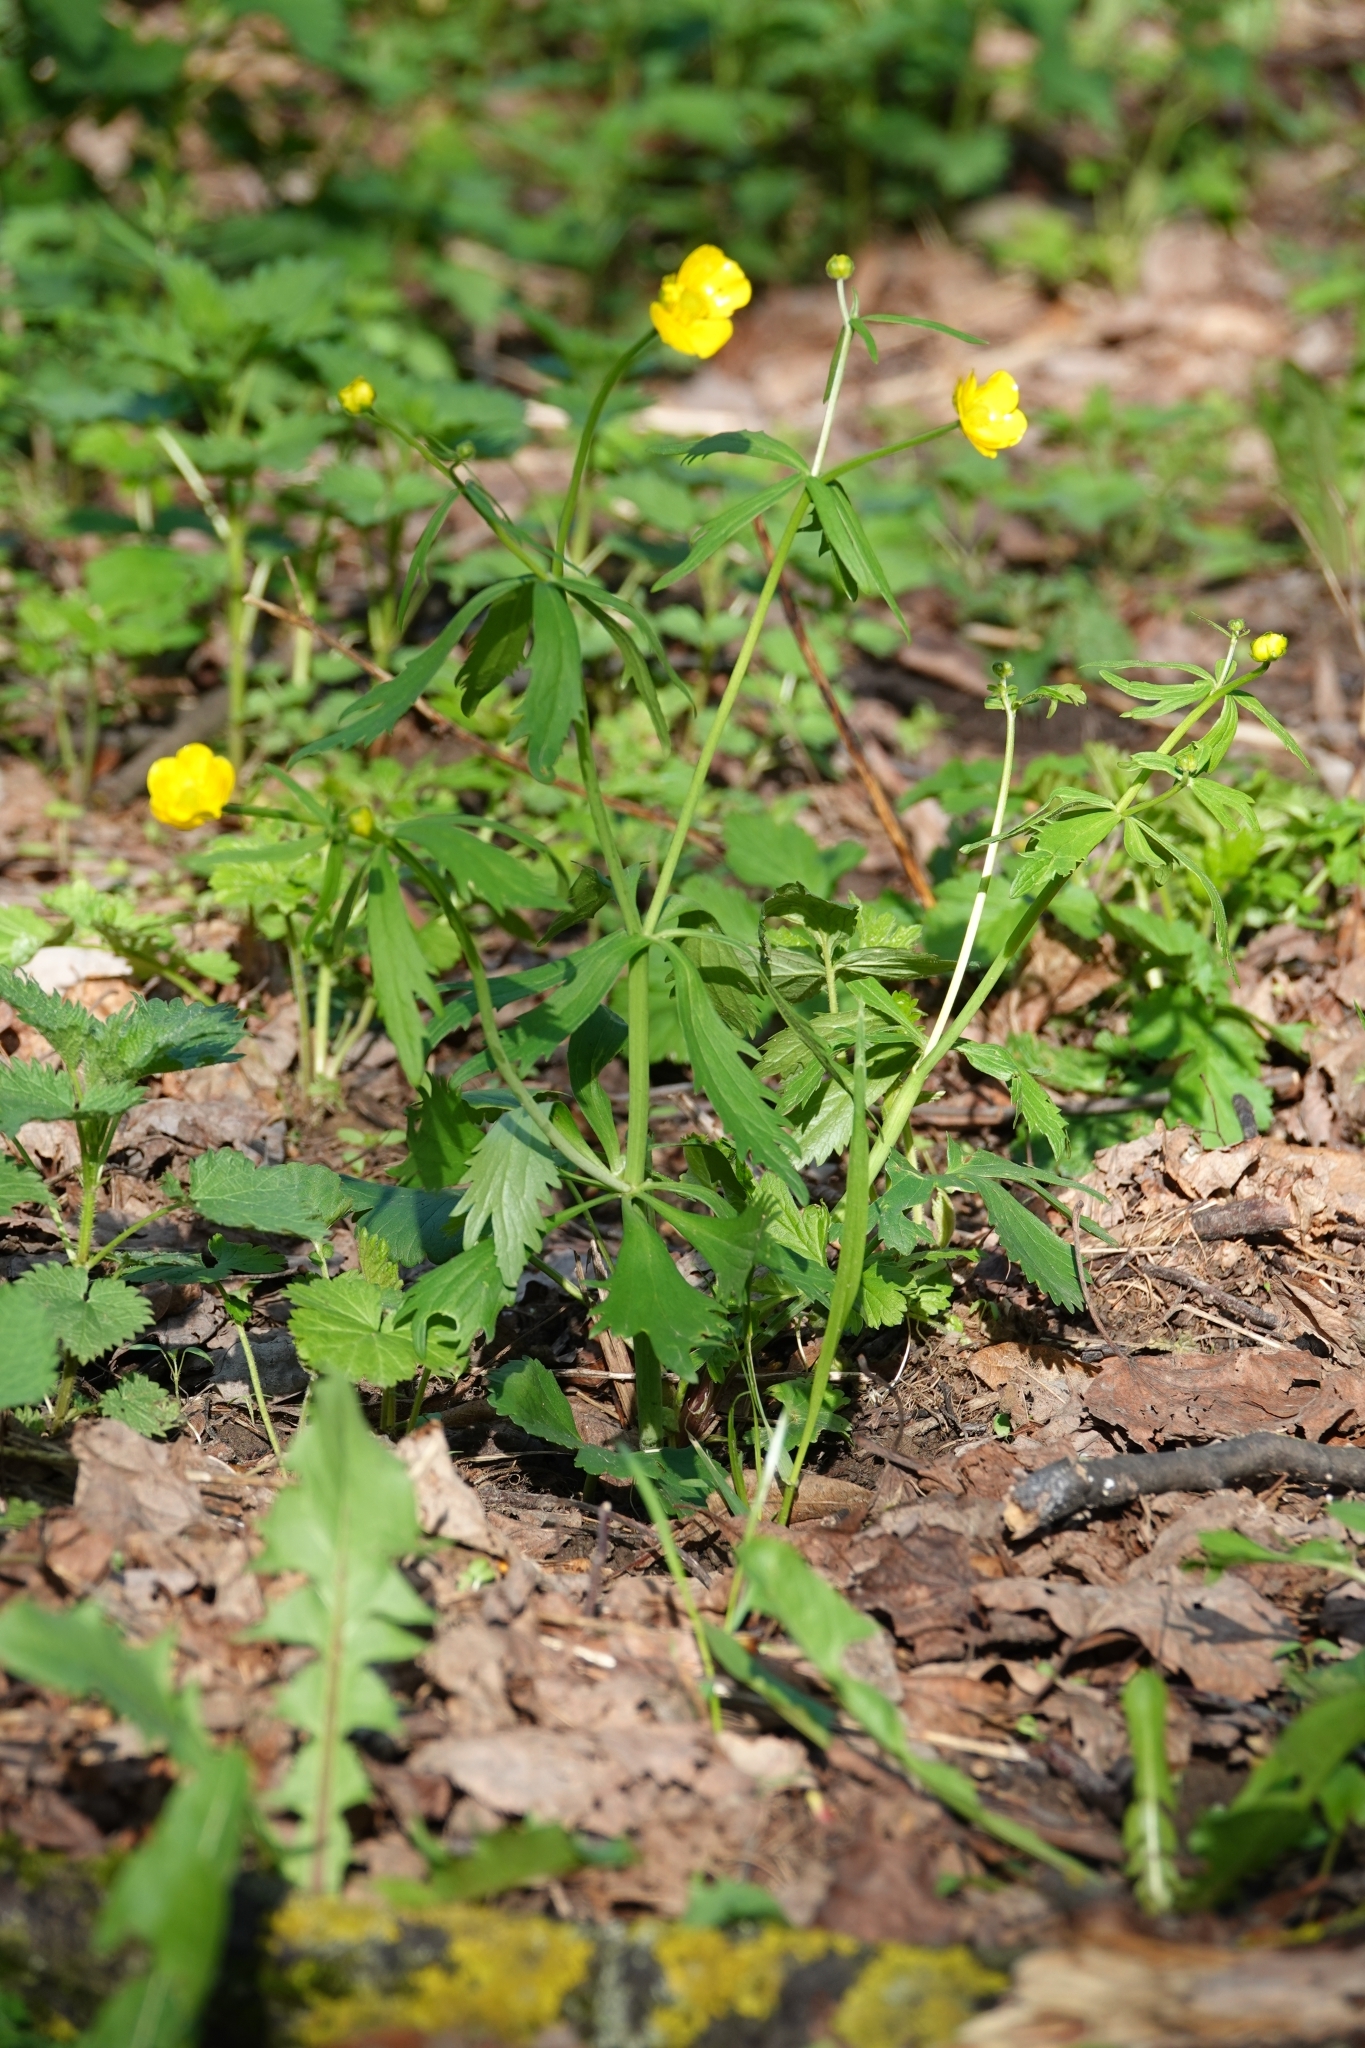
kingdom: Plantae
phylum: Tracheophyta
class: Magnoliopsida
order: Ranunculales
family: Ranunculaceae
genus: Ranunculus
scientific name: Ranunculus cassubicus
